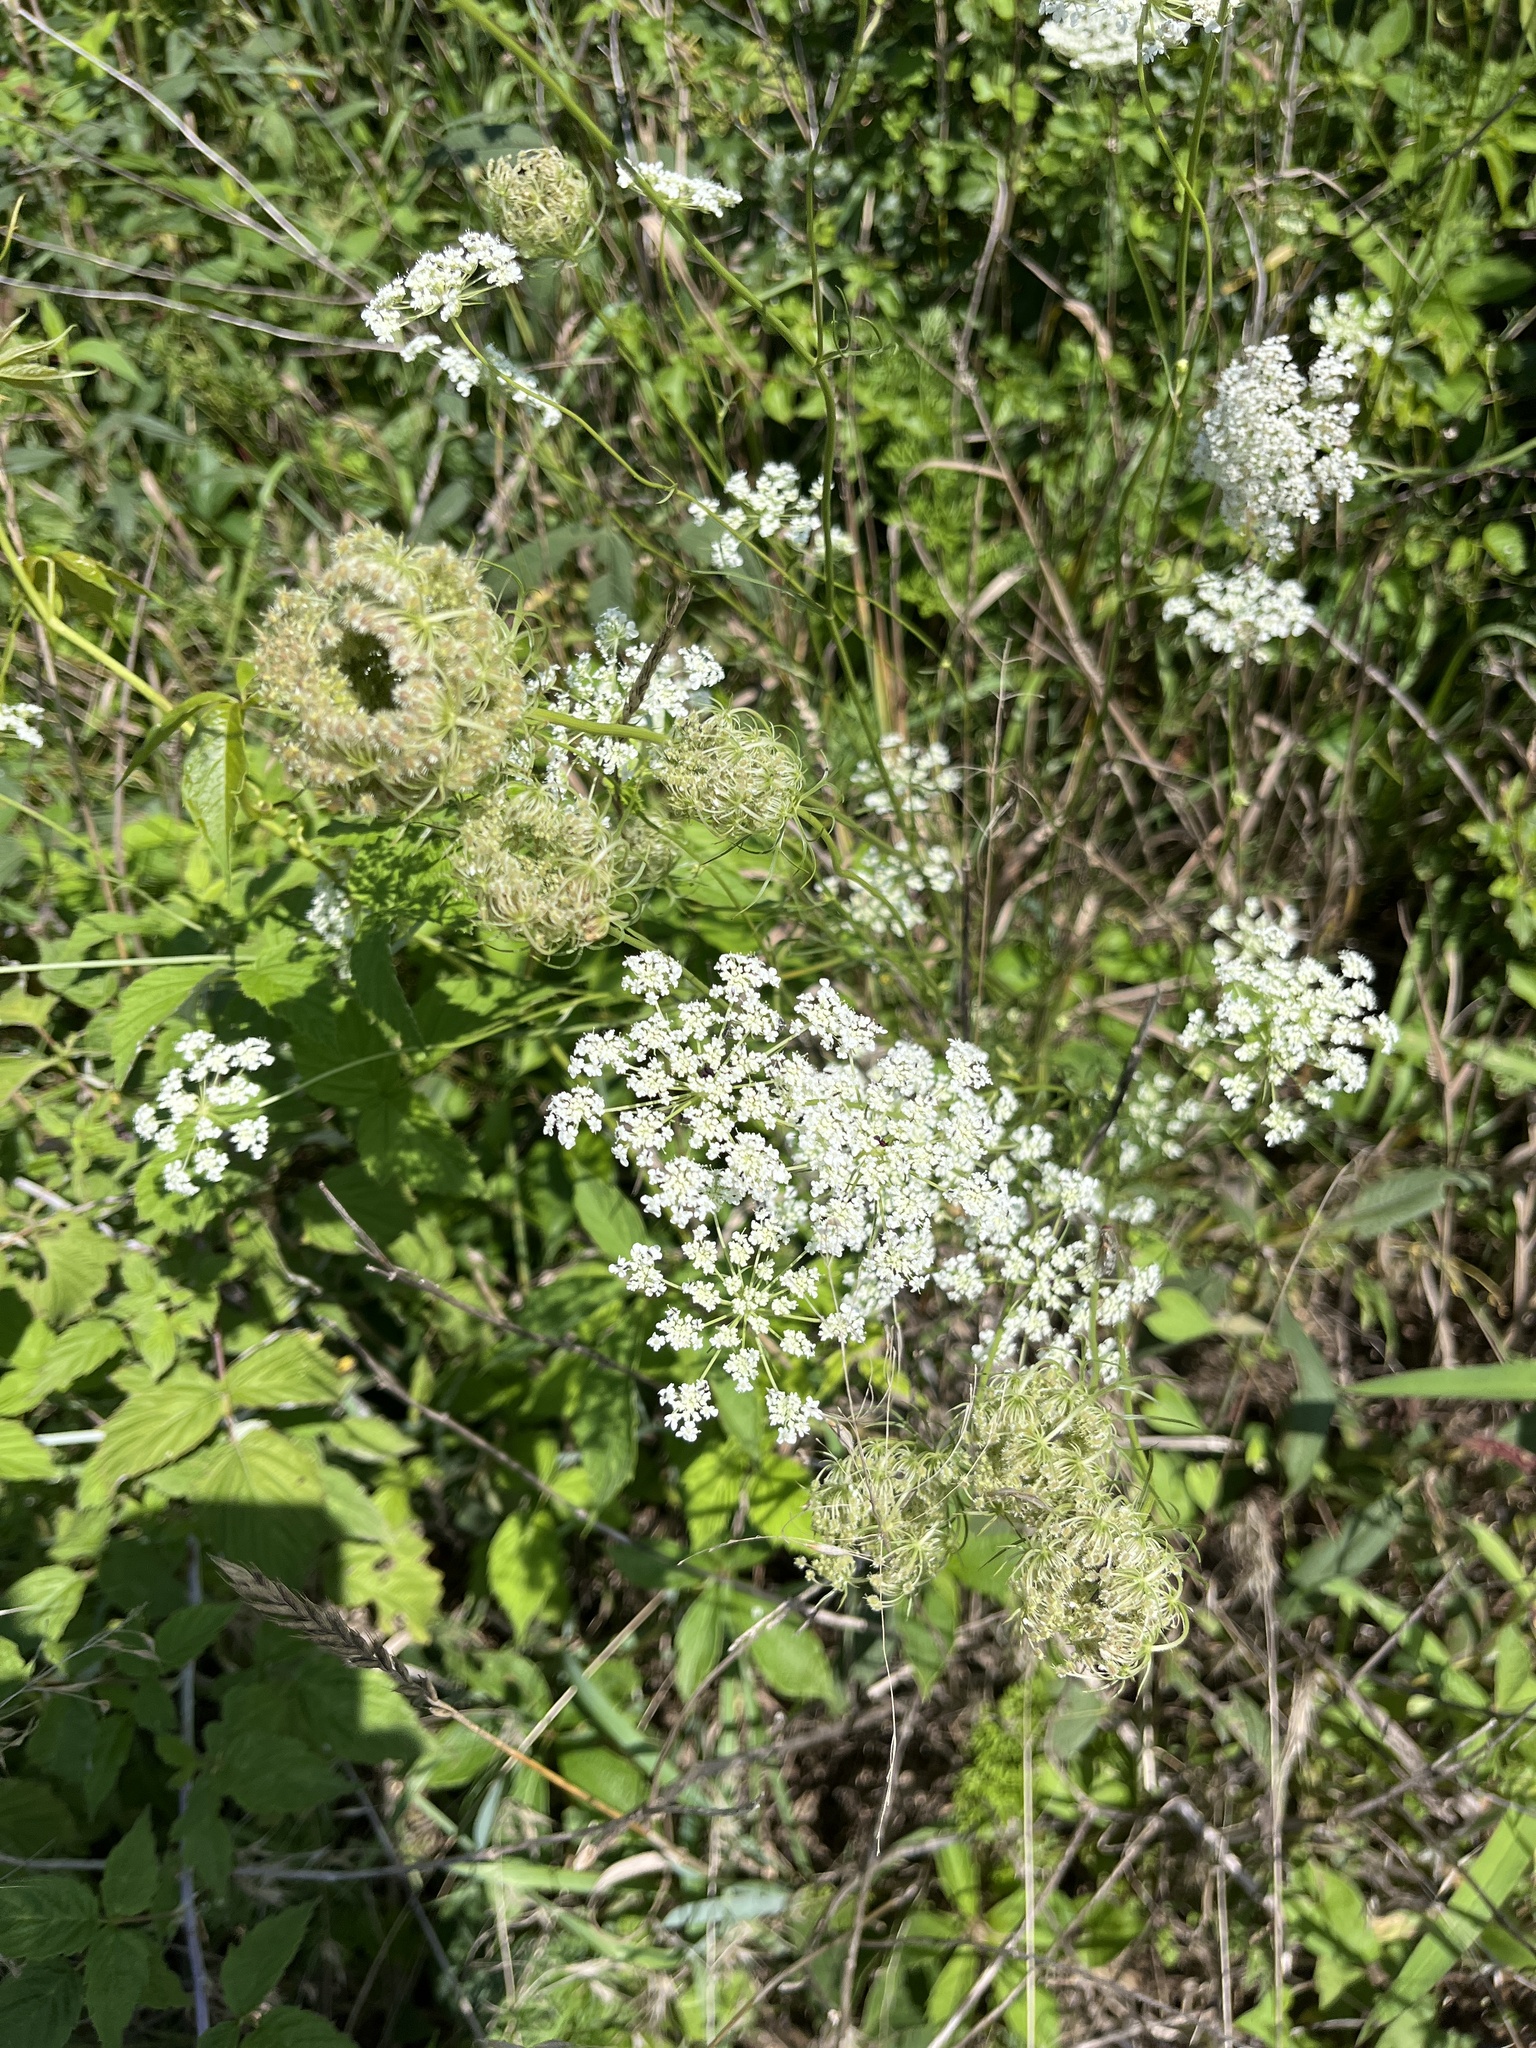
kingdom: Plantae
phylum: Tracheophyta
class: Magnoliopsida
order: Apiales
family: Apiaceae
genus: Daucus
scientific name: Daucus carota
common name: Wild carrot
